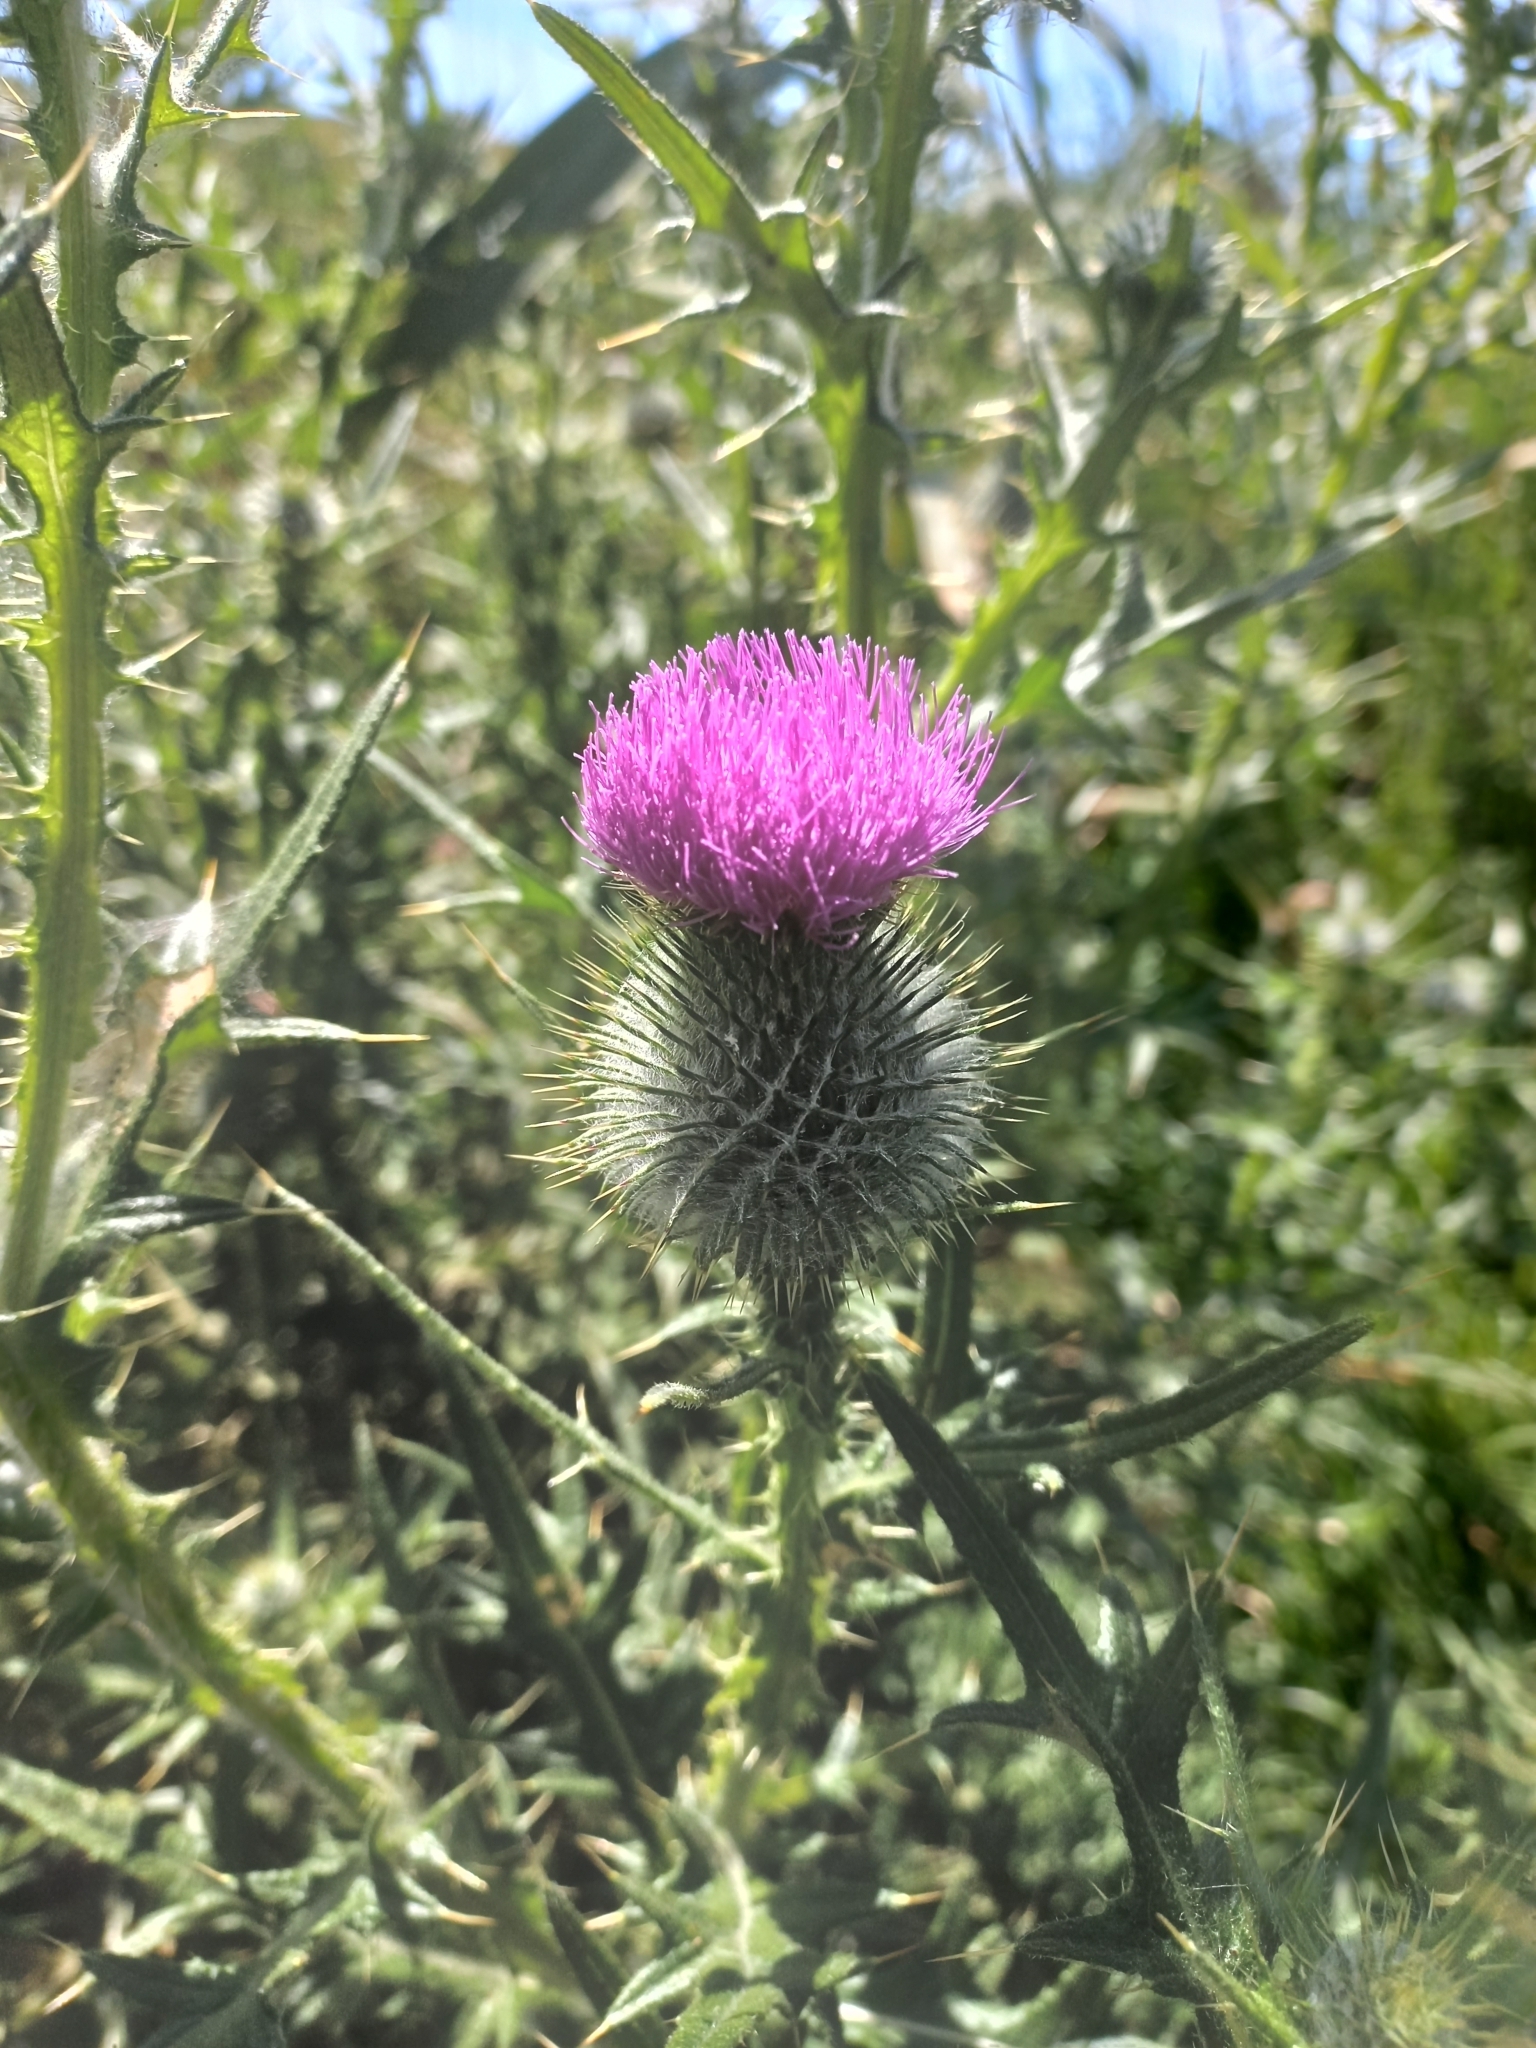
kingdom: Plantae
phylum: Tracheophyta
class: Magnoliopsida
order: Asterales
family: Asteraceae
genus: Cirsium
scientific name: Cirsium vulgare
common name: Bull thistle
